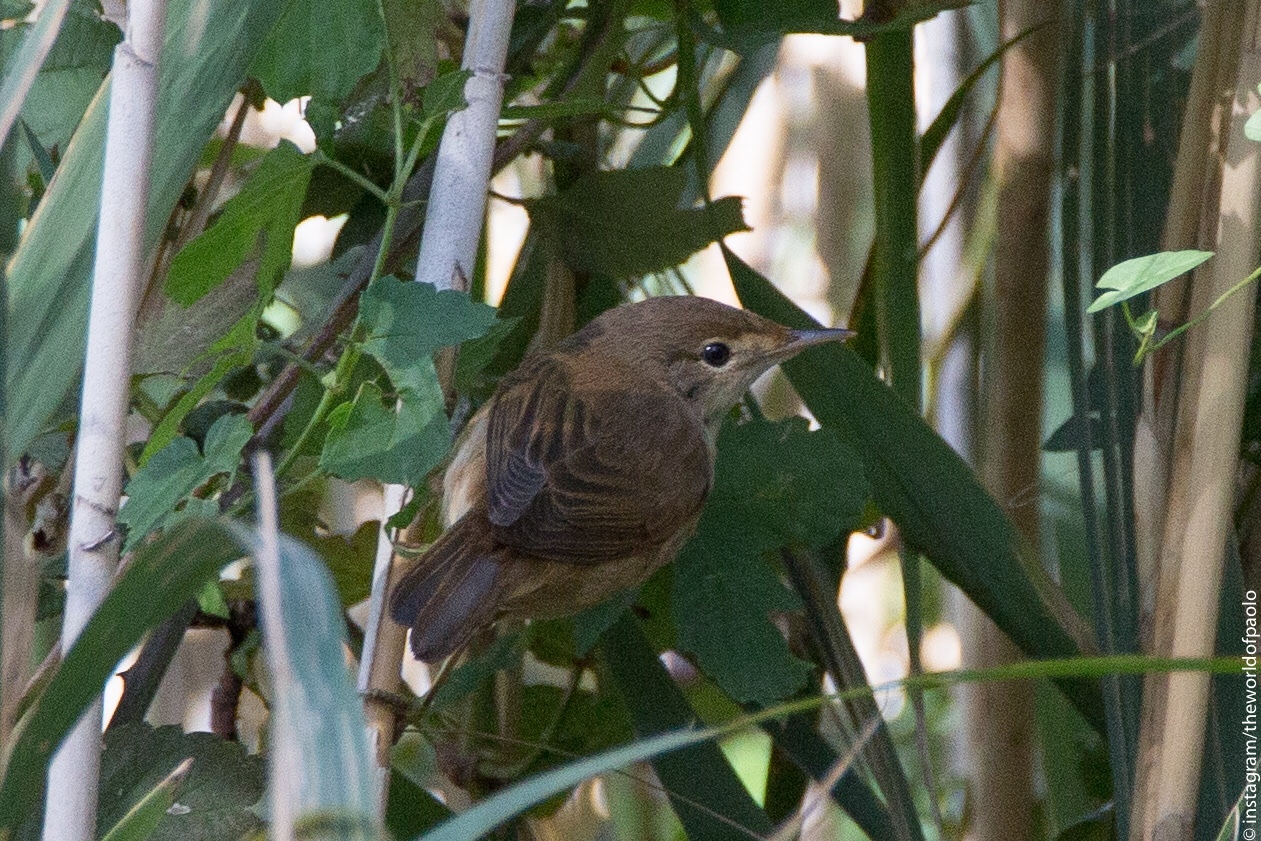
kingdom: Animalia
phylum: Chordata
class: Aves
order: Passeriformes
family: Acrocephalidae
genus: Acrocephalus
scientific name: Acrocephalus scirpaceus
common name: Eurasian reed warbler
